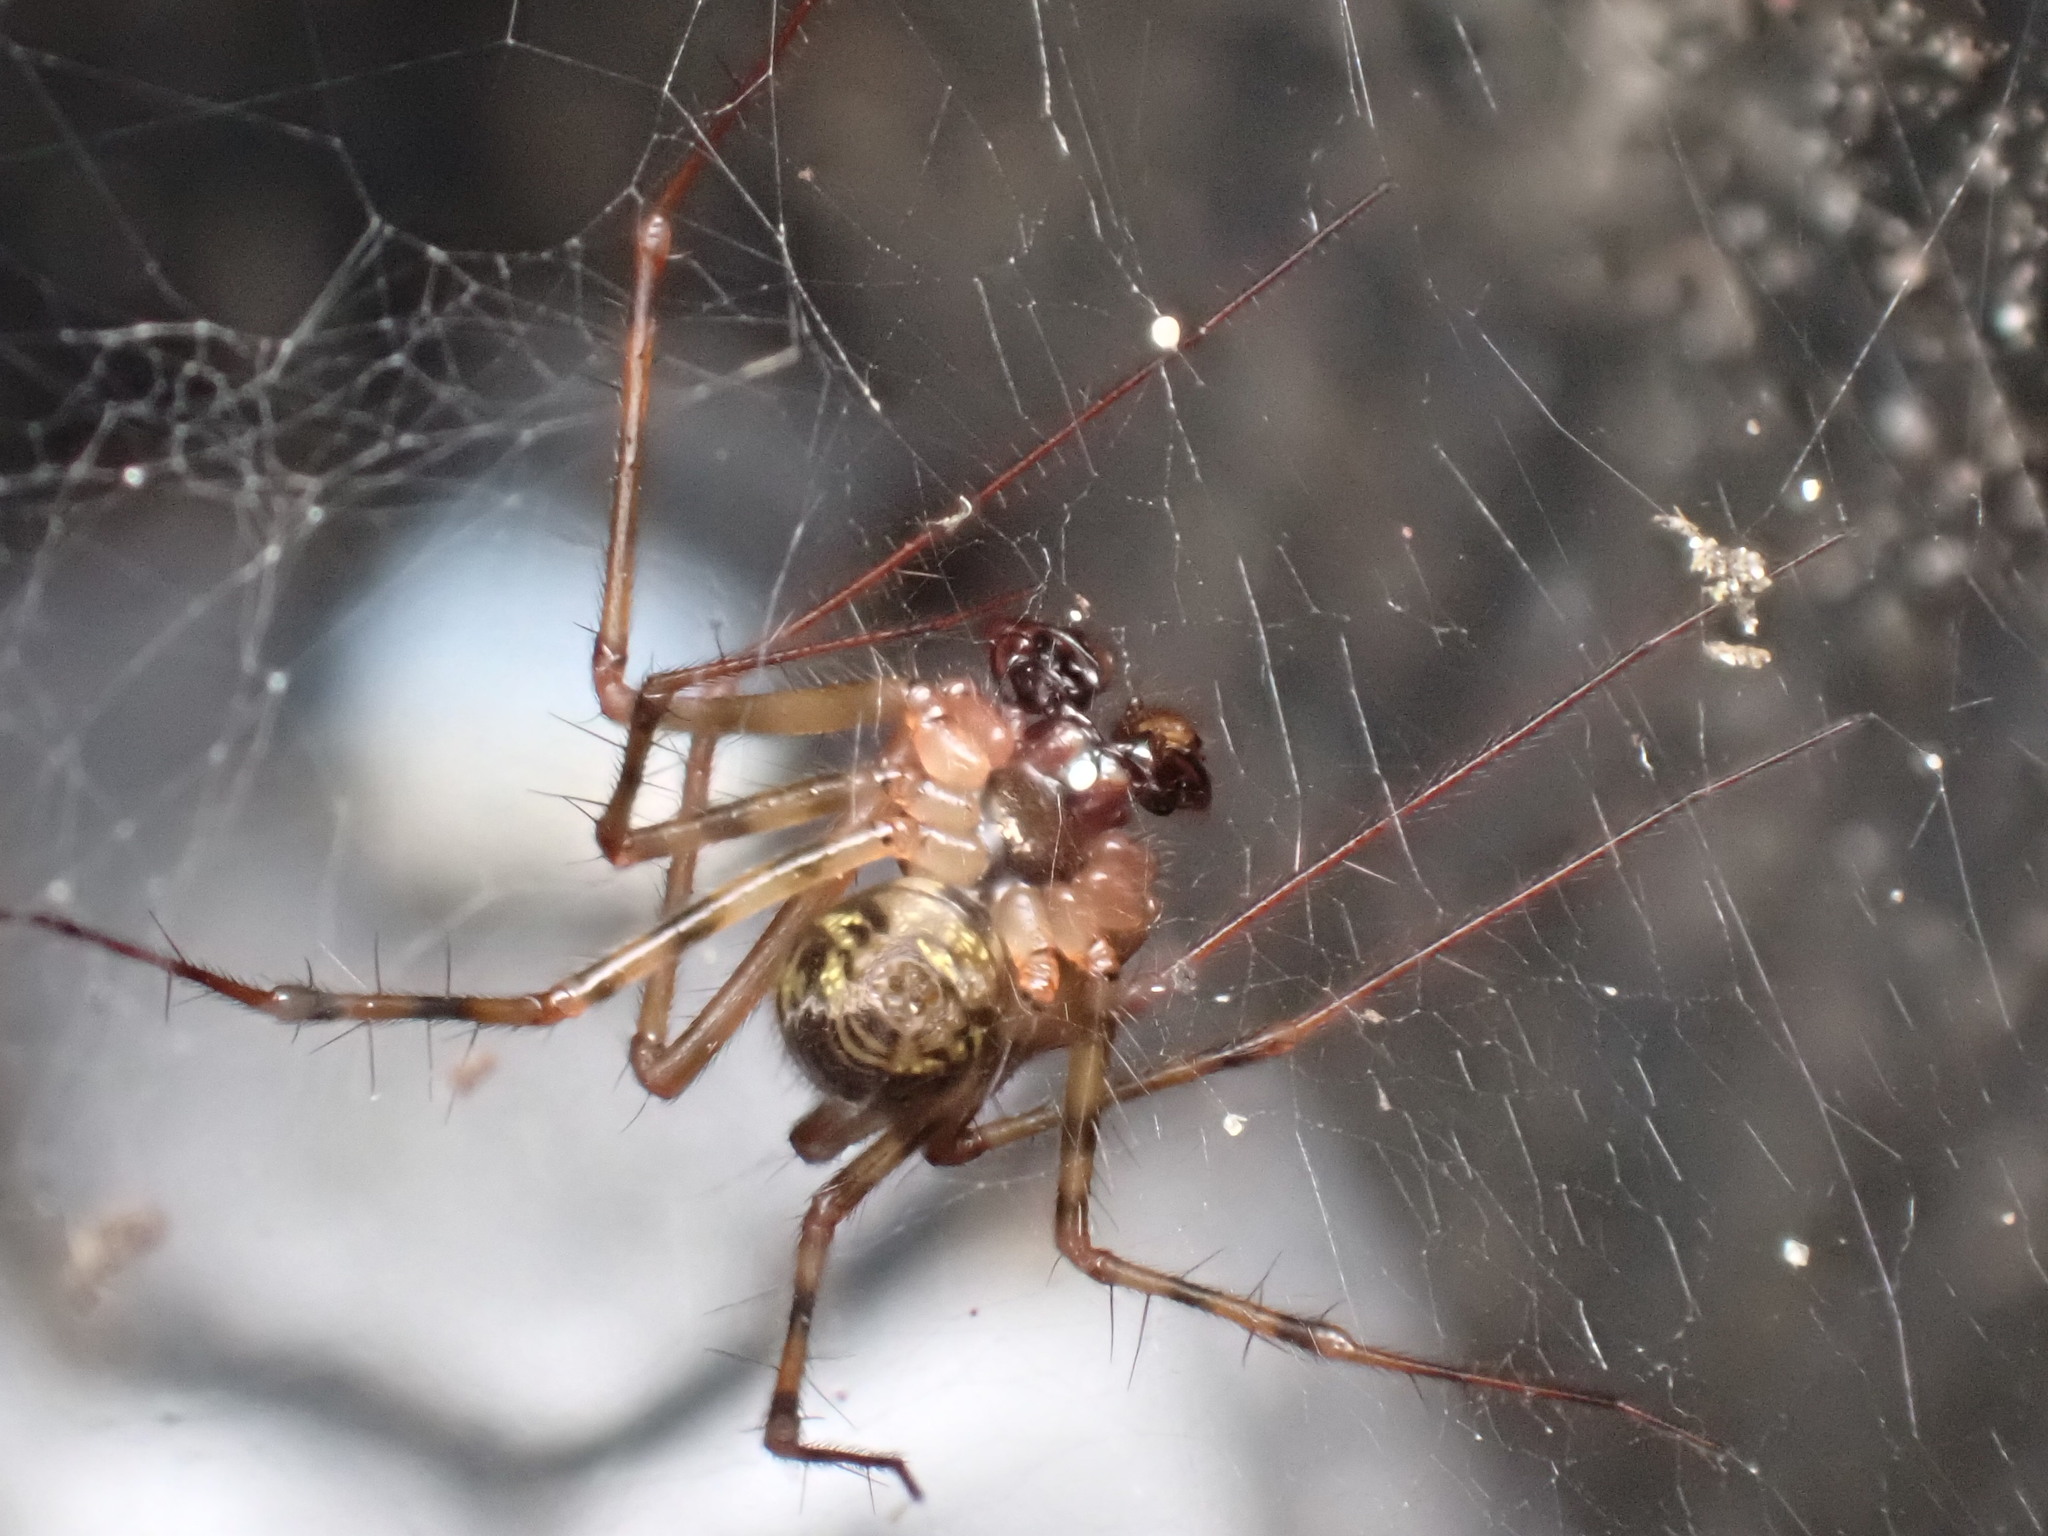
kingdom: Animalia
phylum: Arthropoda
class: Arachnida
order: Araneae
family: Linyphiidae
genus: Labulla
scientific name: Labulla thoracica
